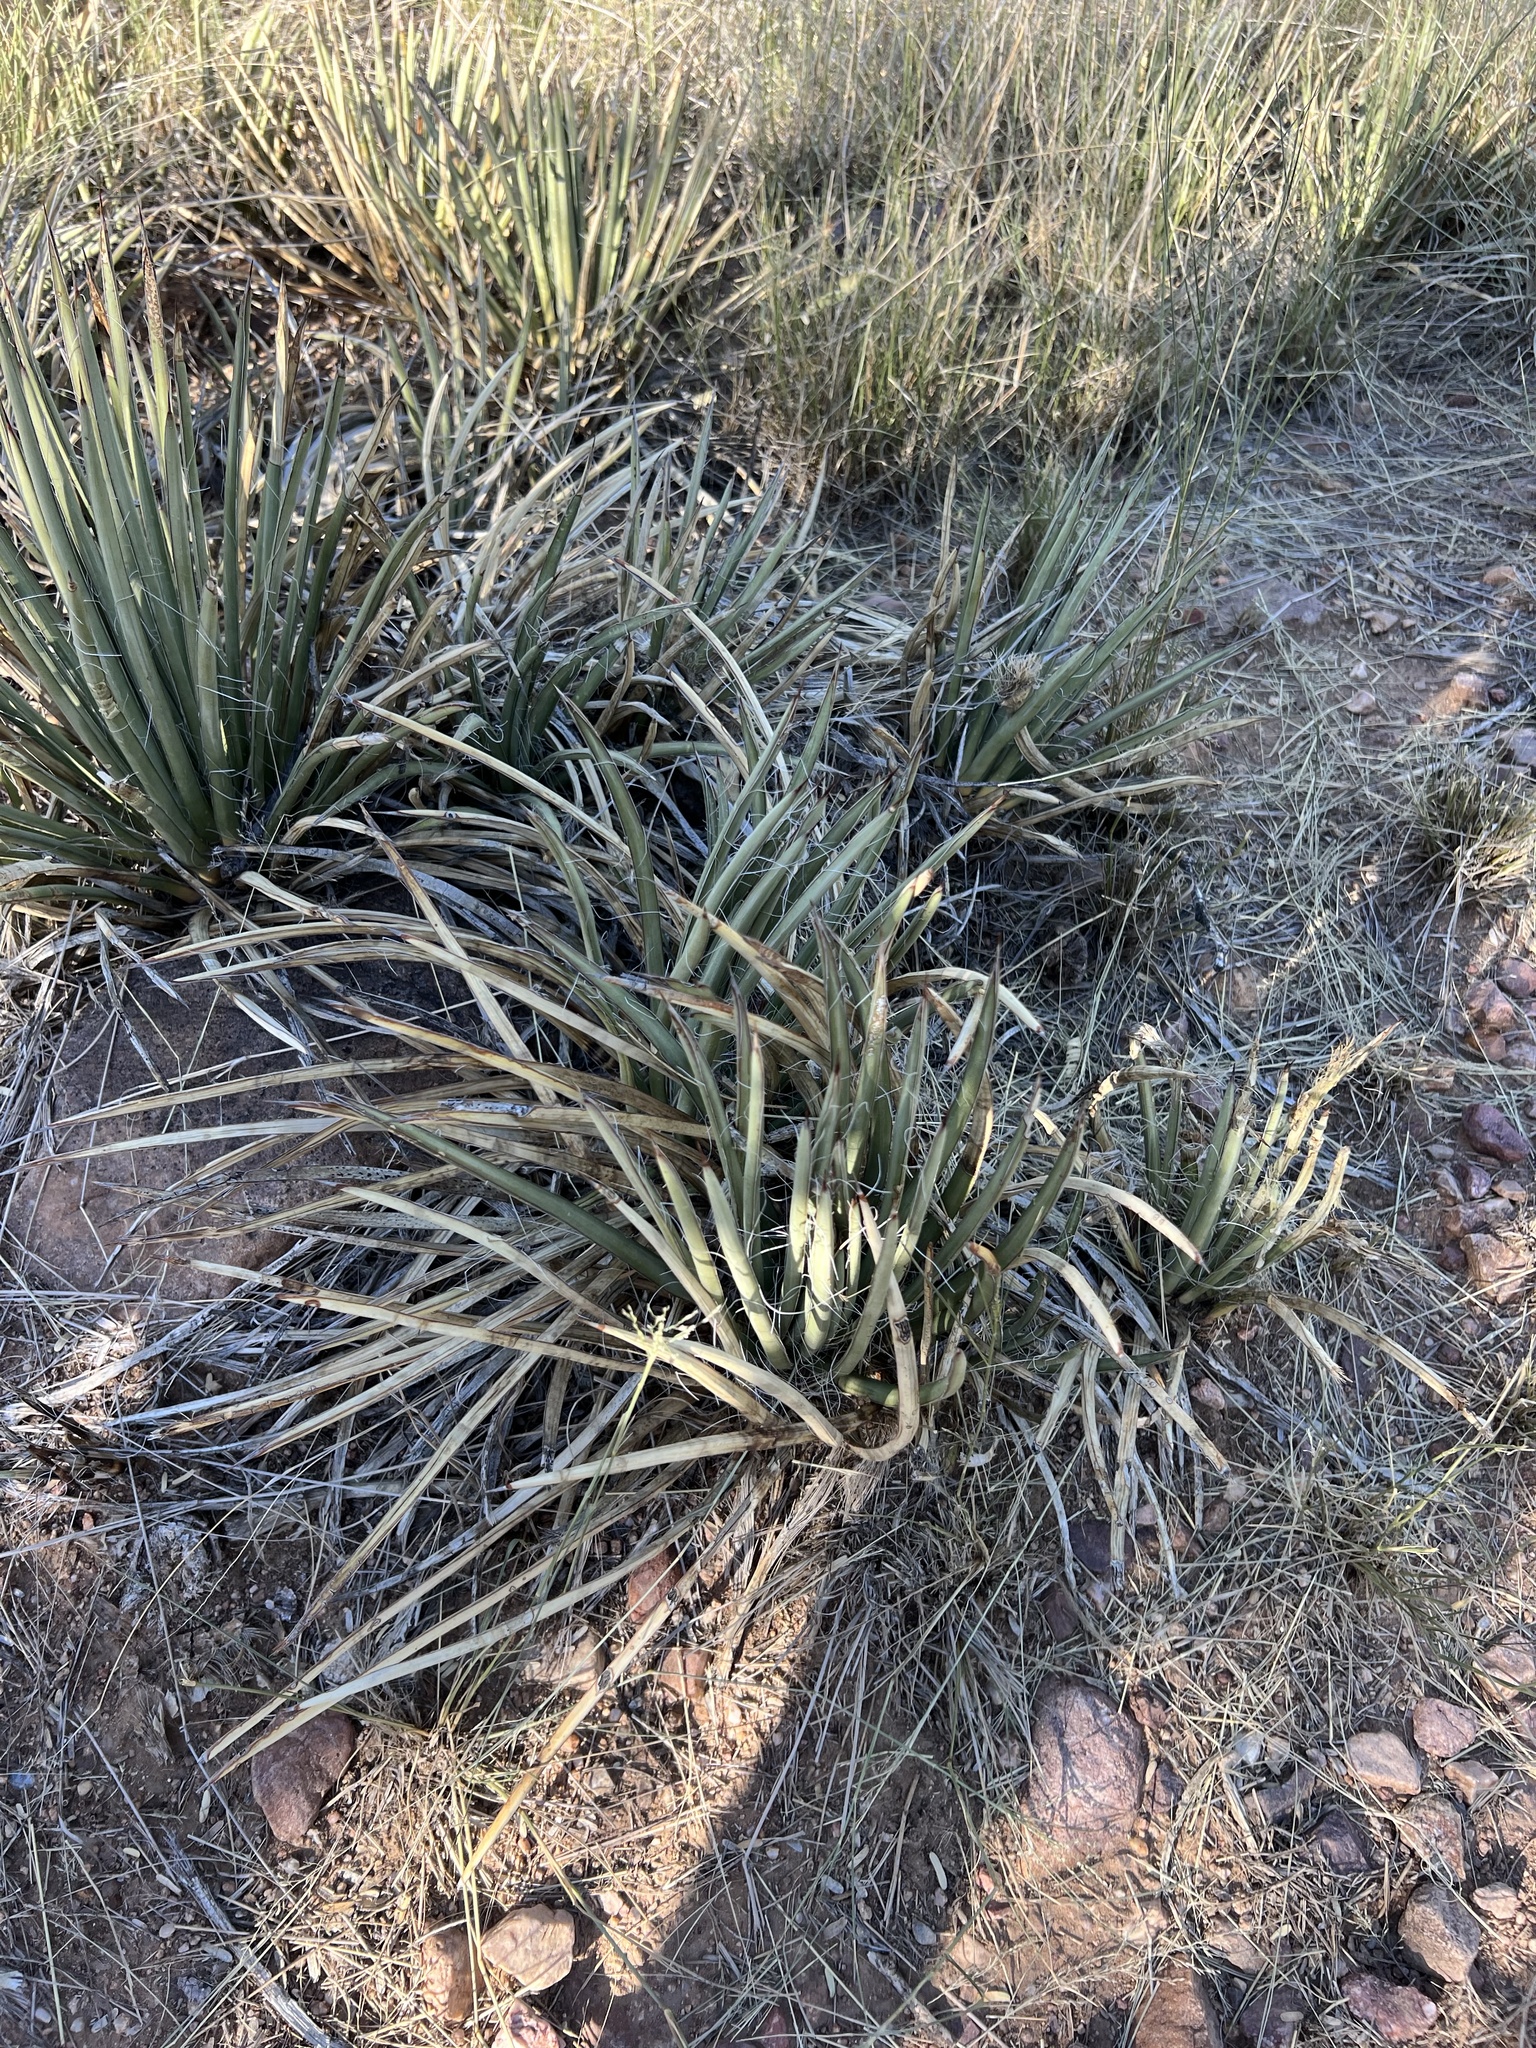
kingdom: Plantae
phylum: Tracheophyta
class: Liliopsida
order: Asparagales
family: Asparagaceae
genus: Agave
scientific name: Agave schottii
